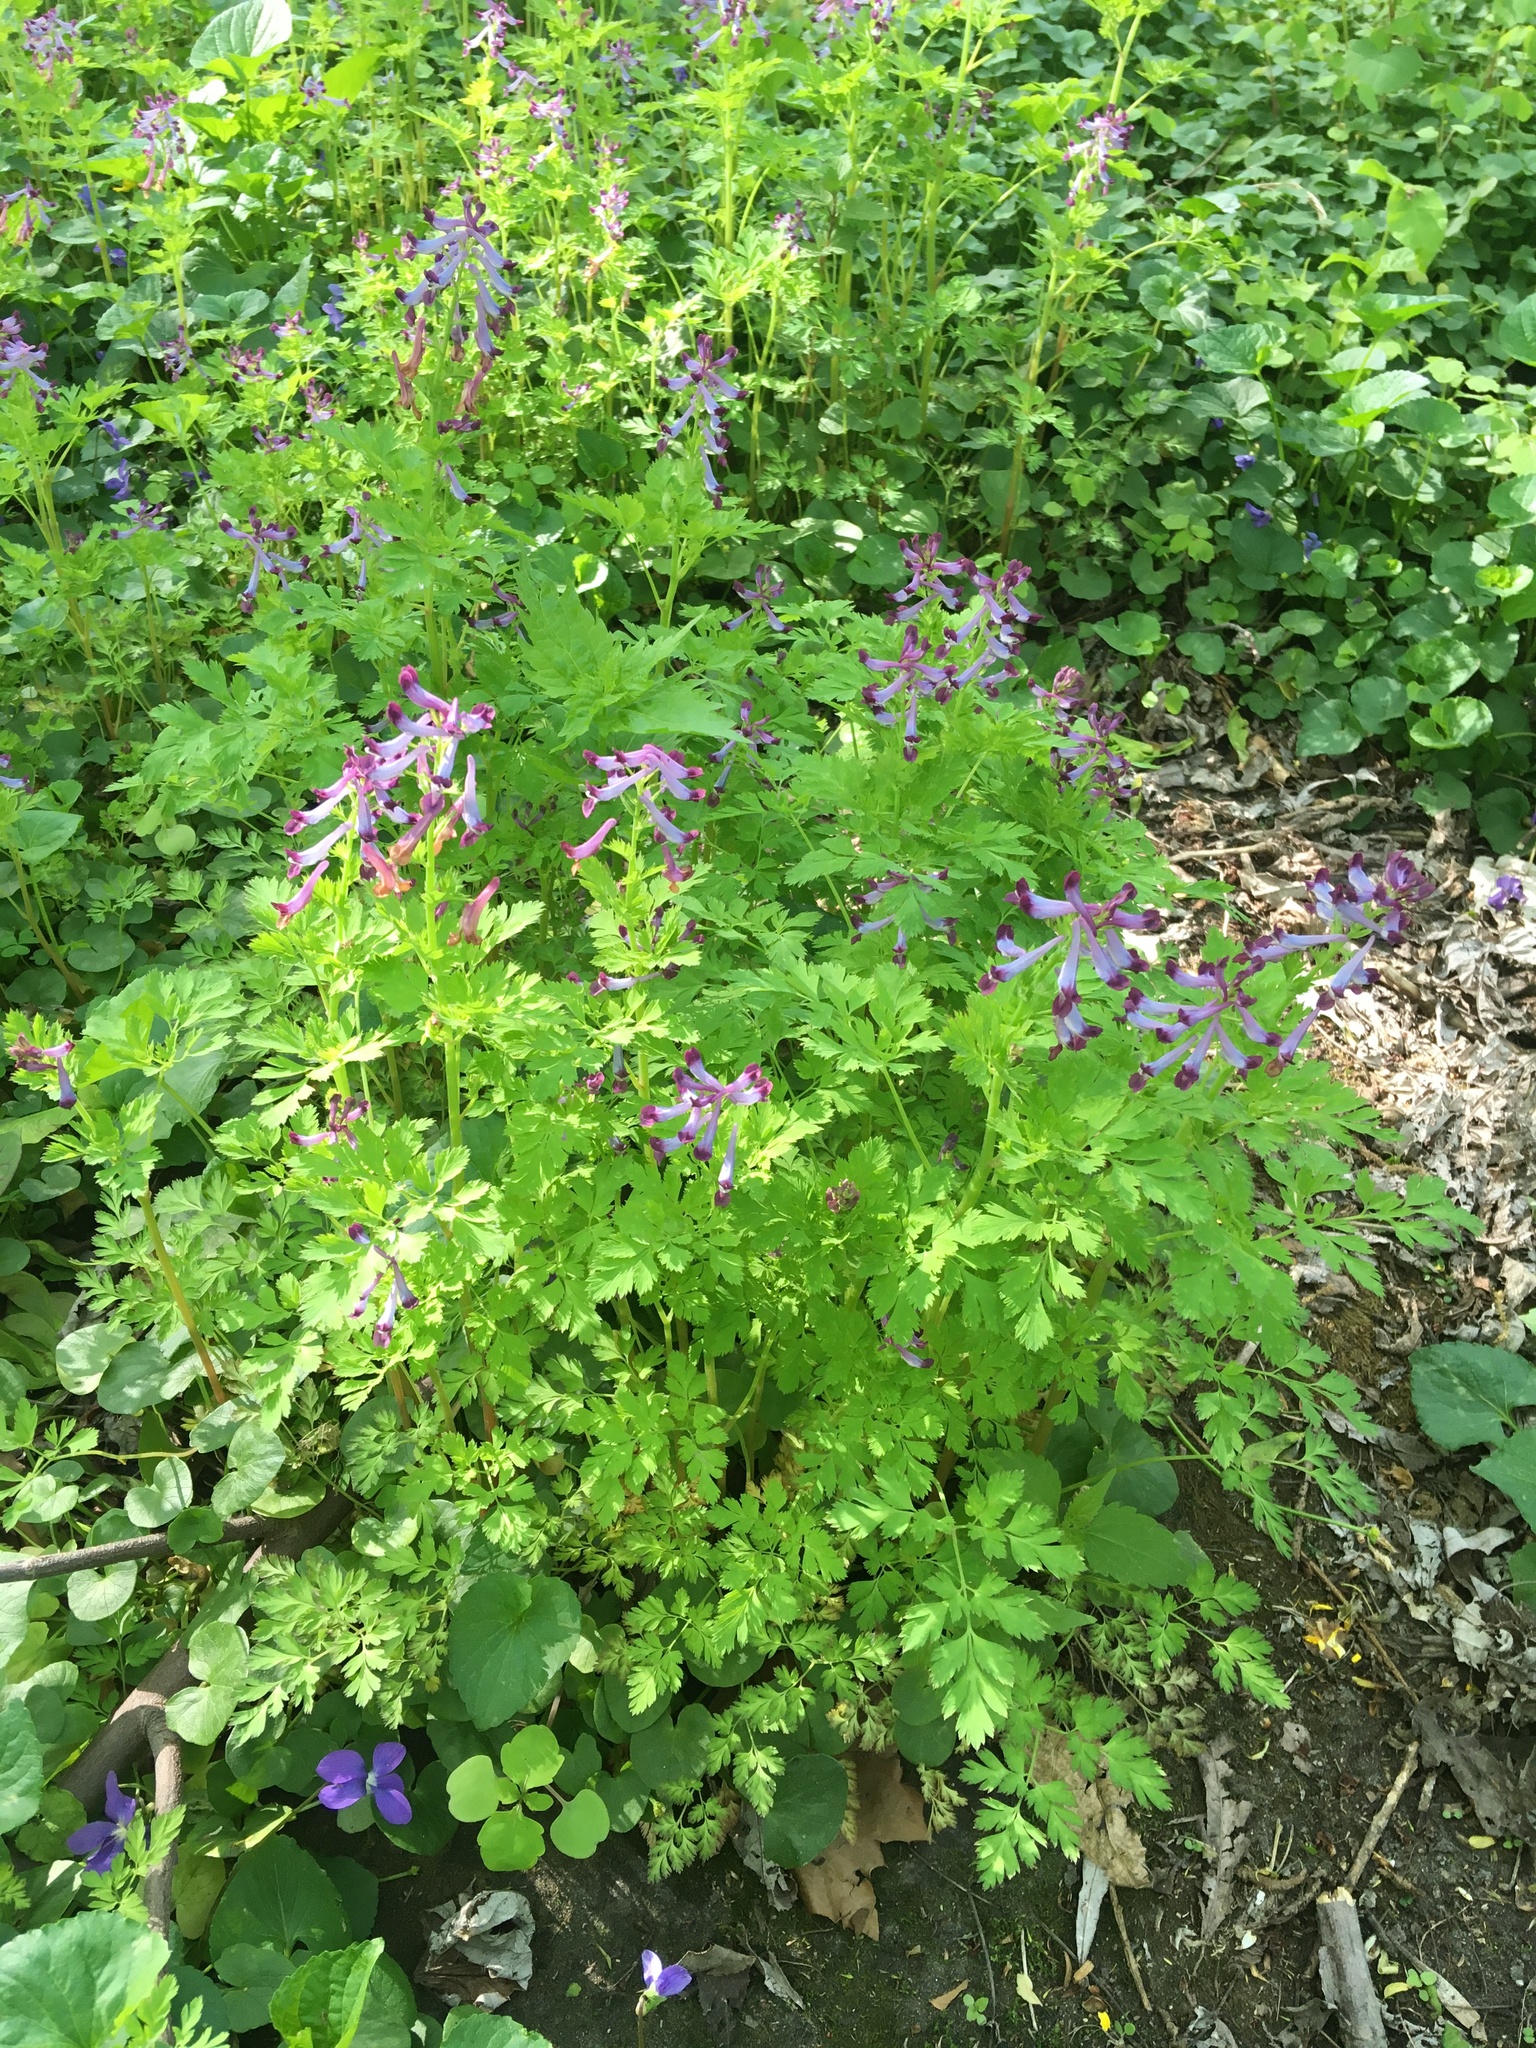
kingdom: Plantae
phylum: Tracheophyta
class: Magnoliopsida
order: Ranunculales
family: Papaveraceae
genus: Corydalis
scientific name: Corydalis incisa
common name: Incised fumewort
